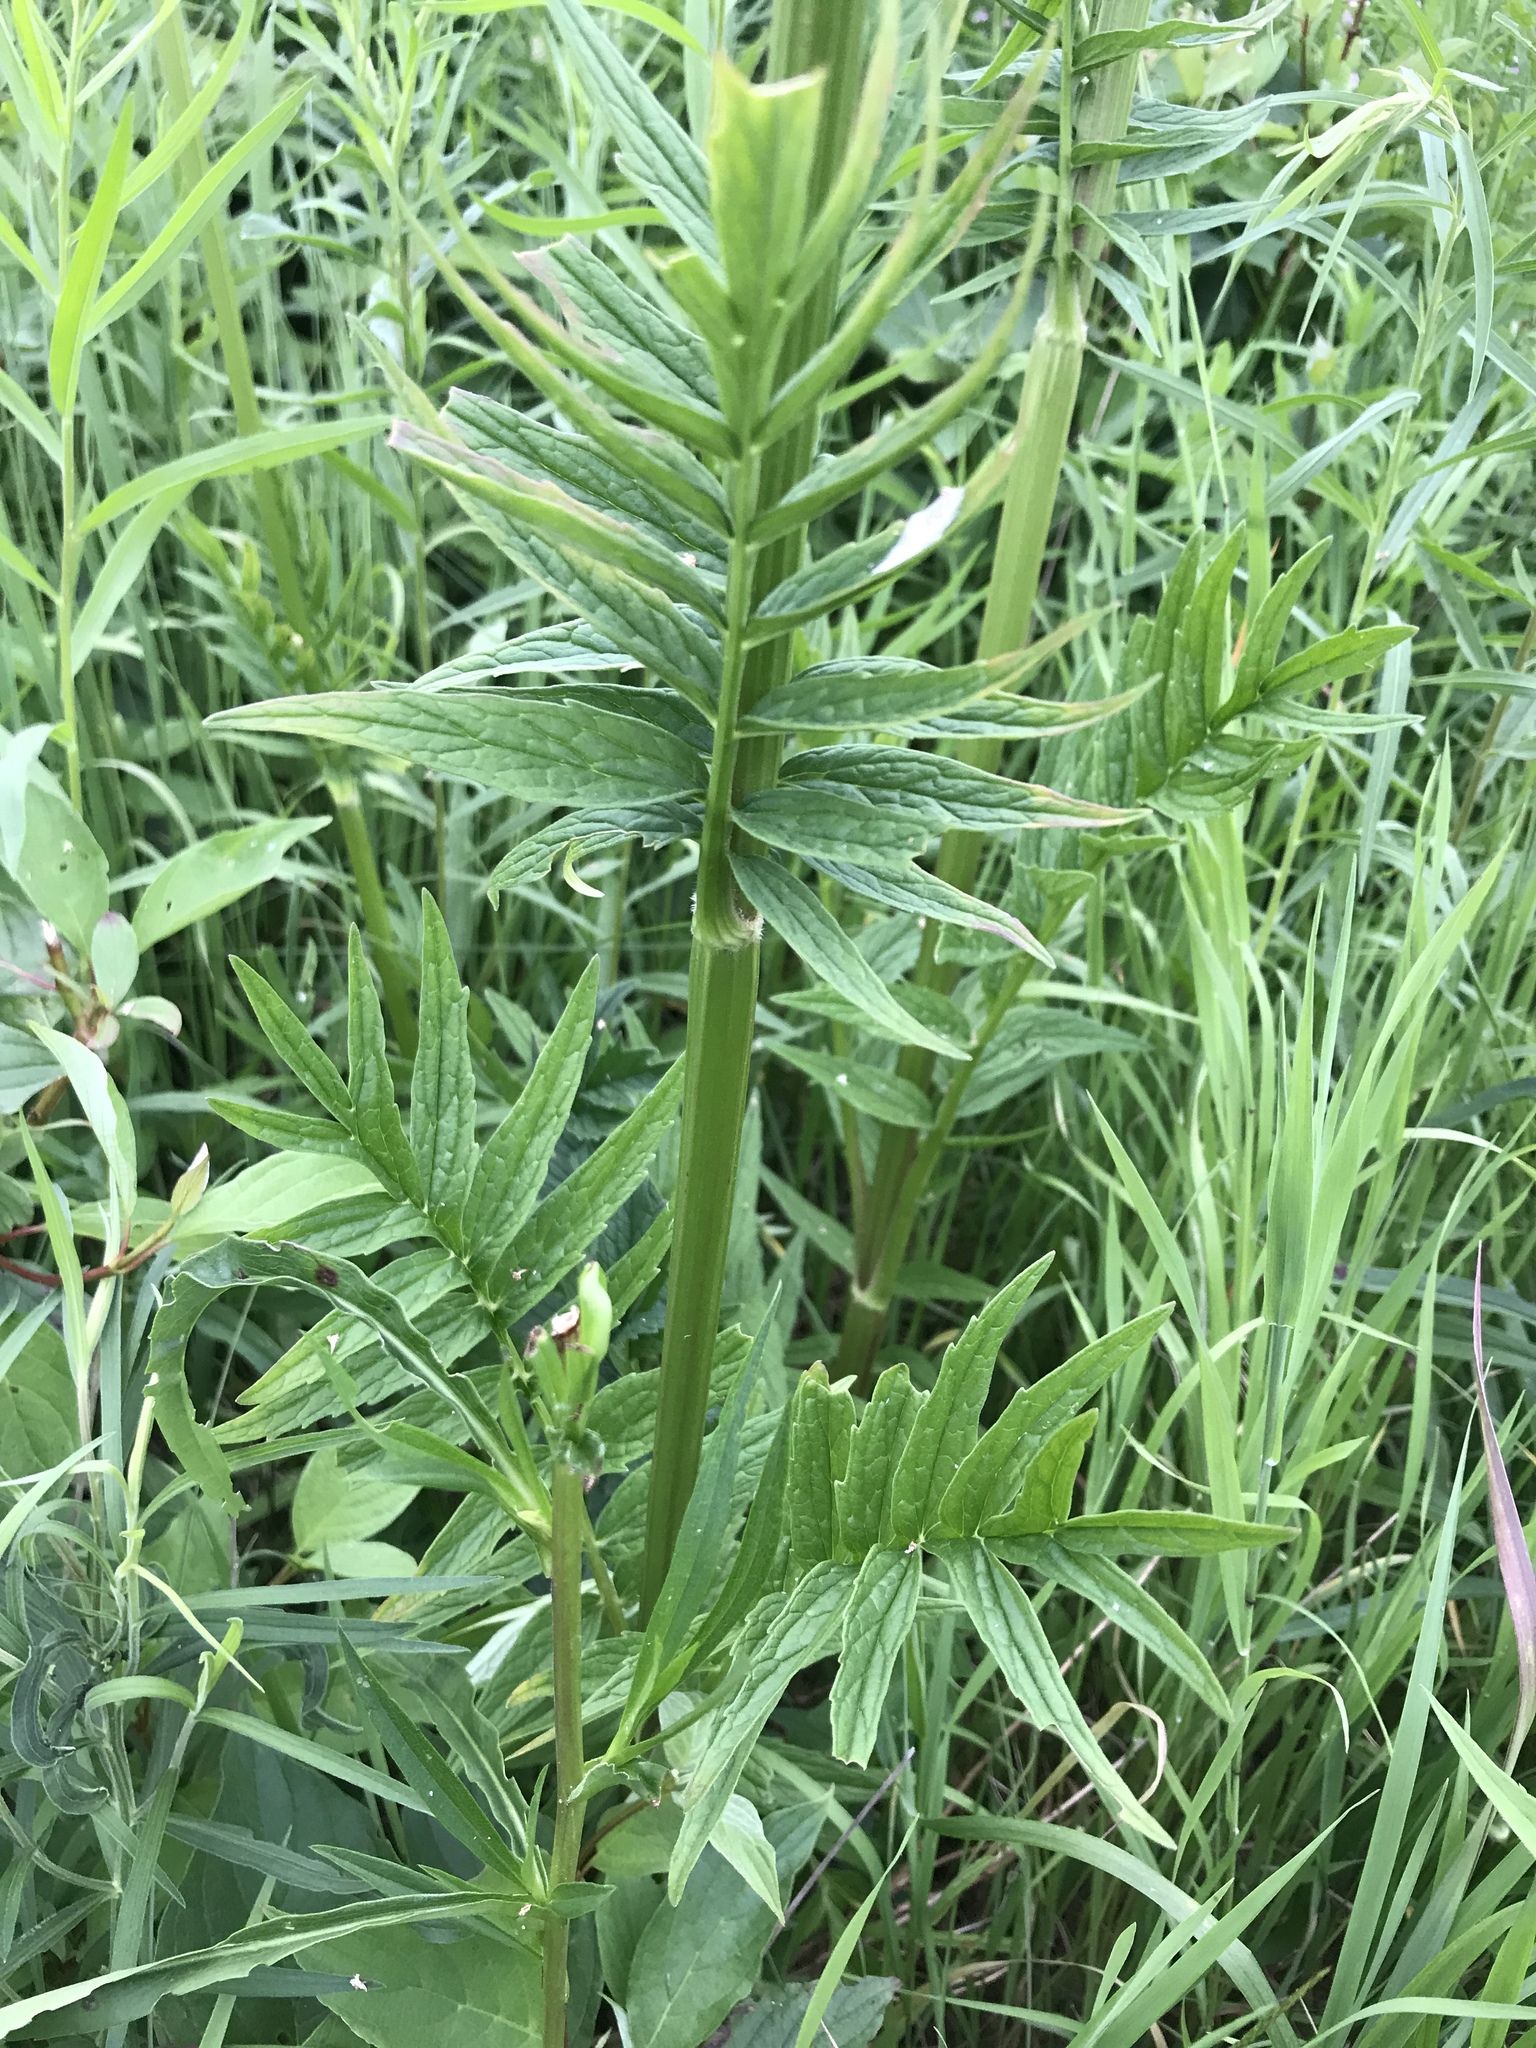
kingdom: Plantae
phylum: Tracheophyta
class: Magnoliopsida
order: Dipsacales
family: Caprifoliaceae
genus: Valeriana
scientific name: Valeriana officinalis
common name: Common valerian
